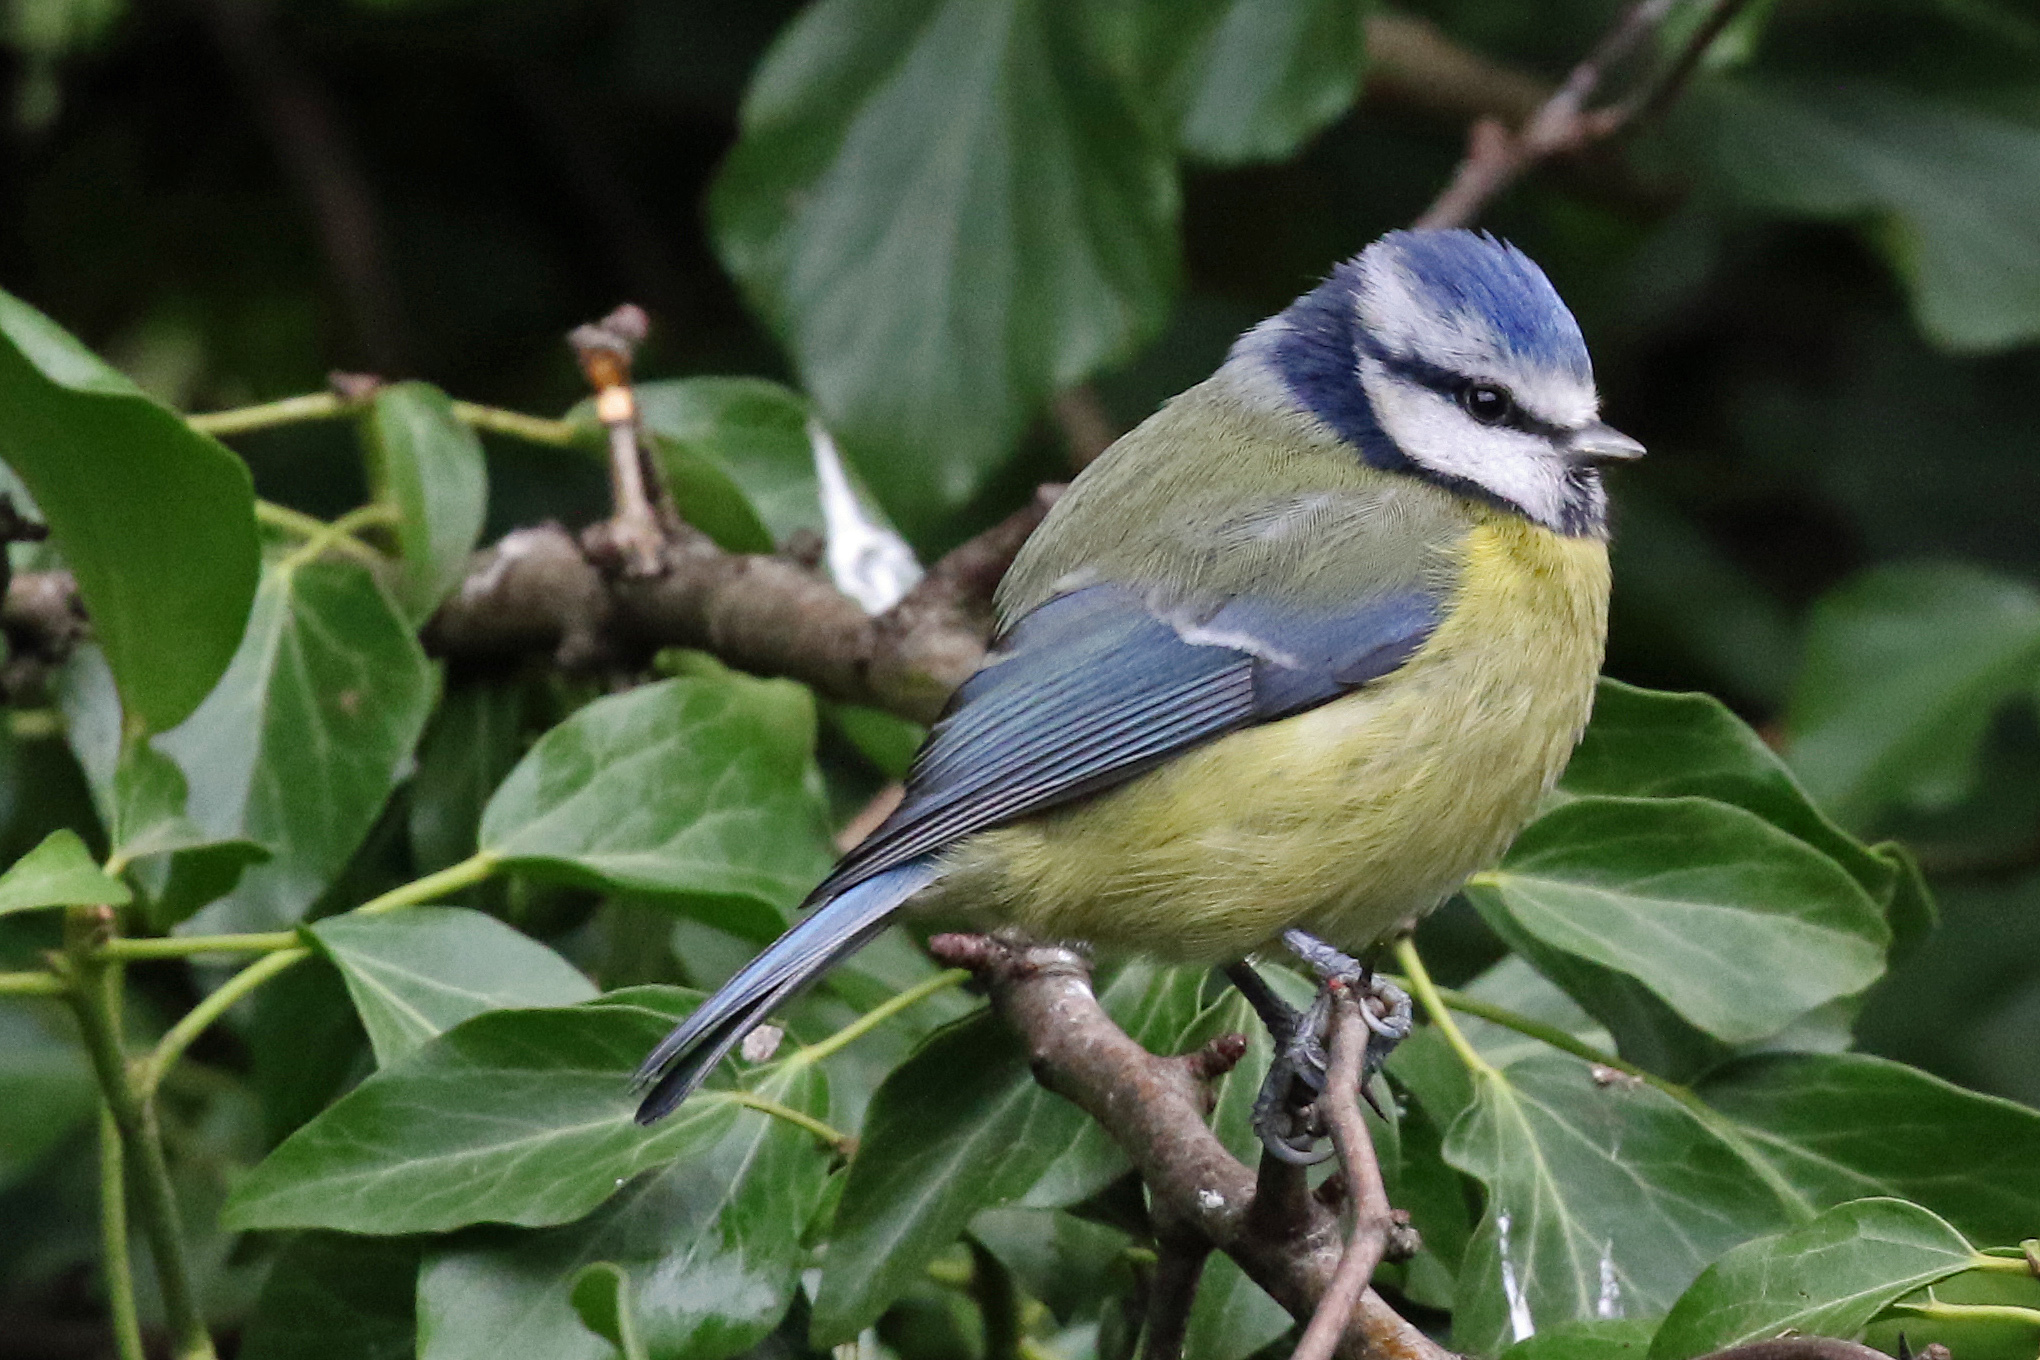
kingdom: Animalia
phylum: Chordata
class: Aves
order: Passeriformes
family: Paridae
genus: Cyanistes
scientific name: Cyanistes caeruleus
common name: Eurasian blue tit
